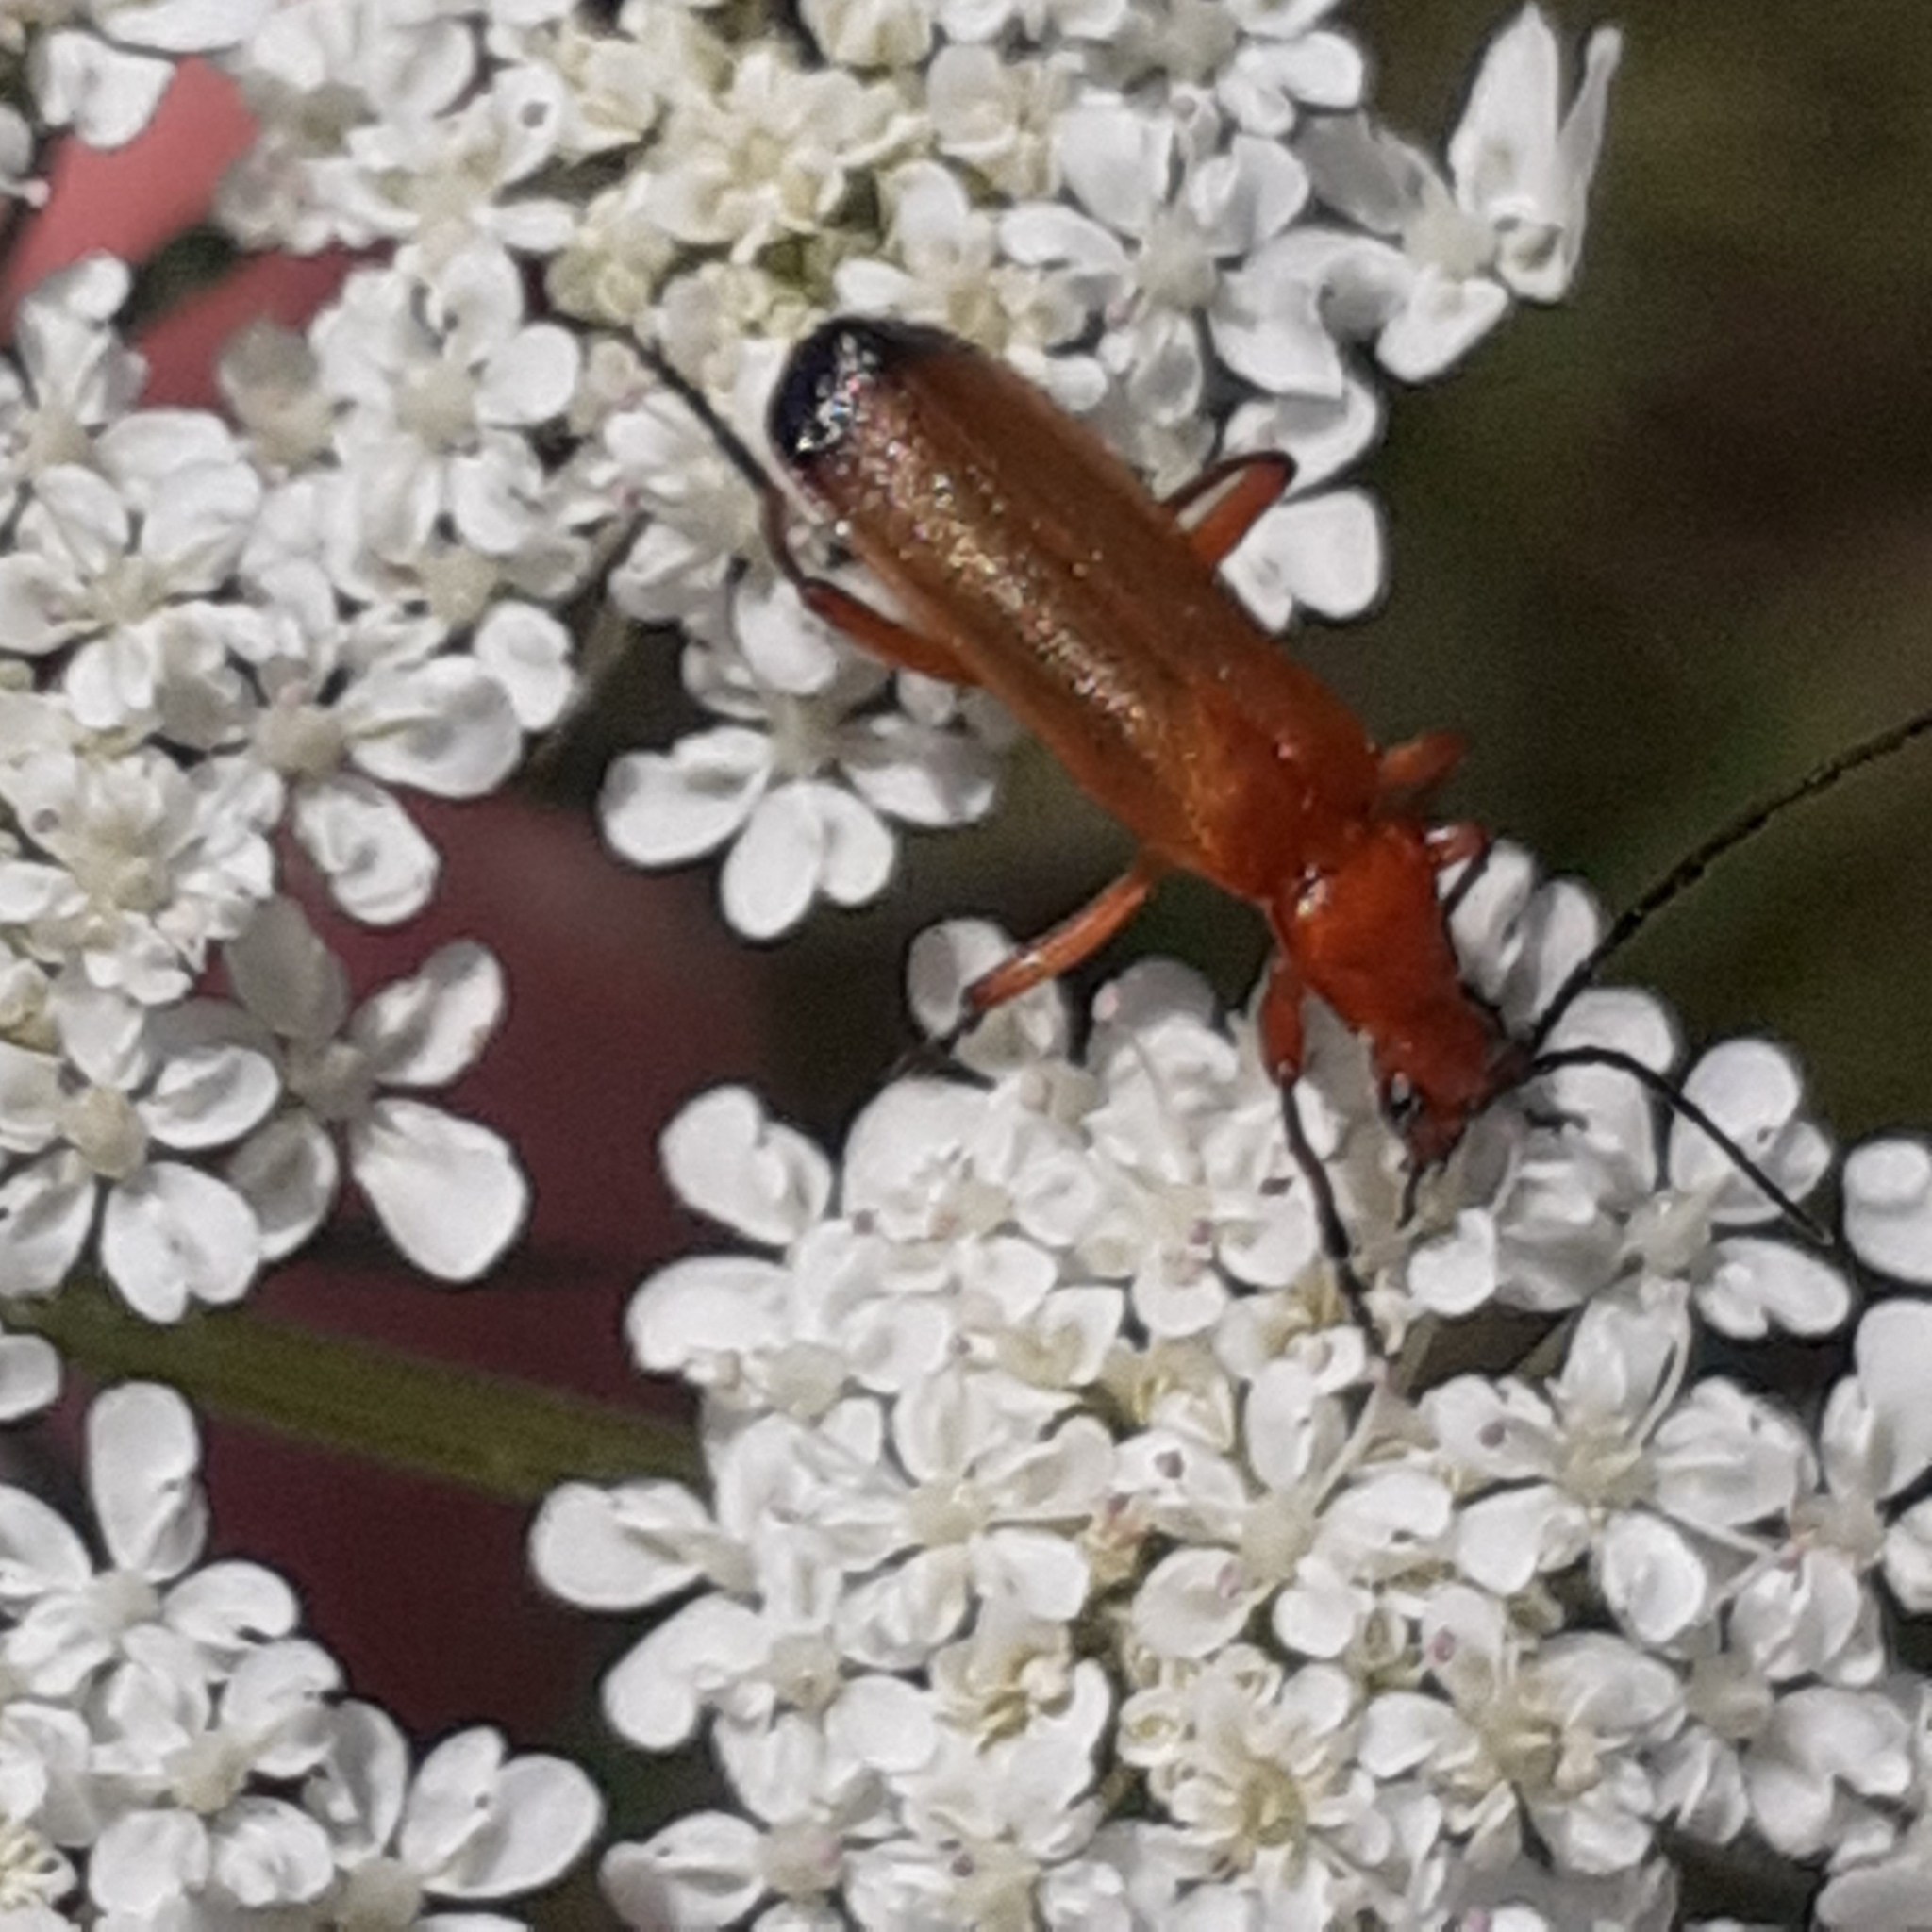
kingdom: Animalia
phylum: Arthropoda
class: Insecta
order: Coleoptera
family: Cantharidae
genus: Rhagonycha
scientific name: Rhagonycha fulva
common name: Common red soldier beetle
